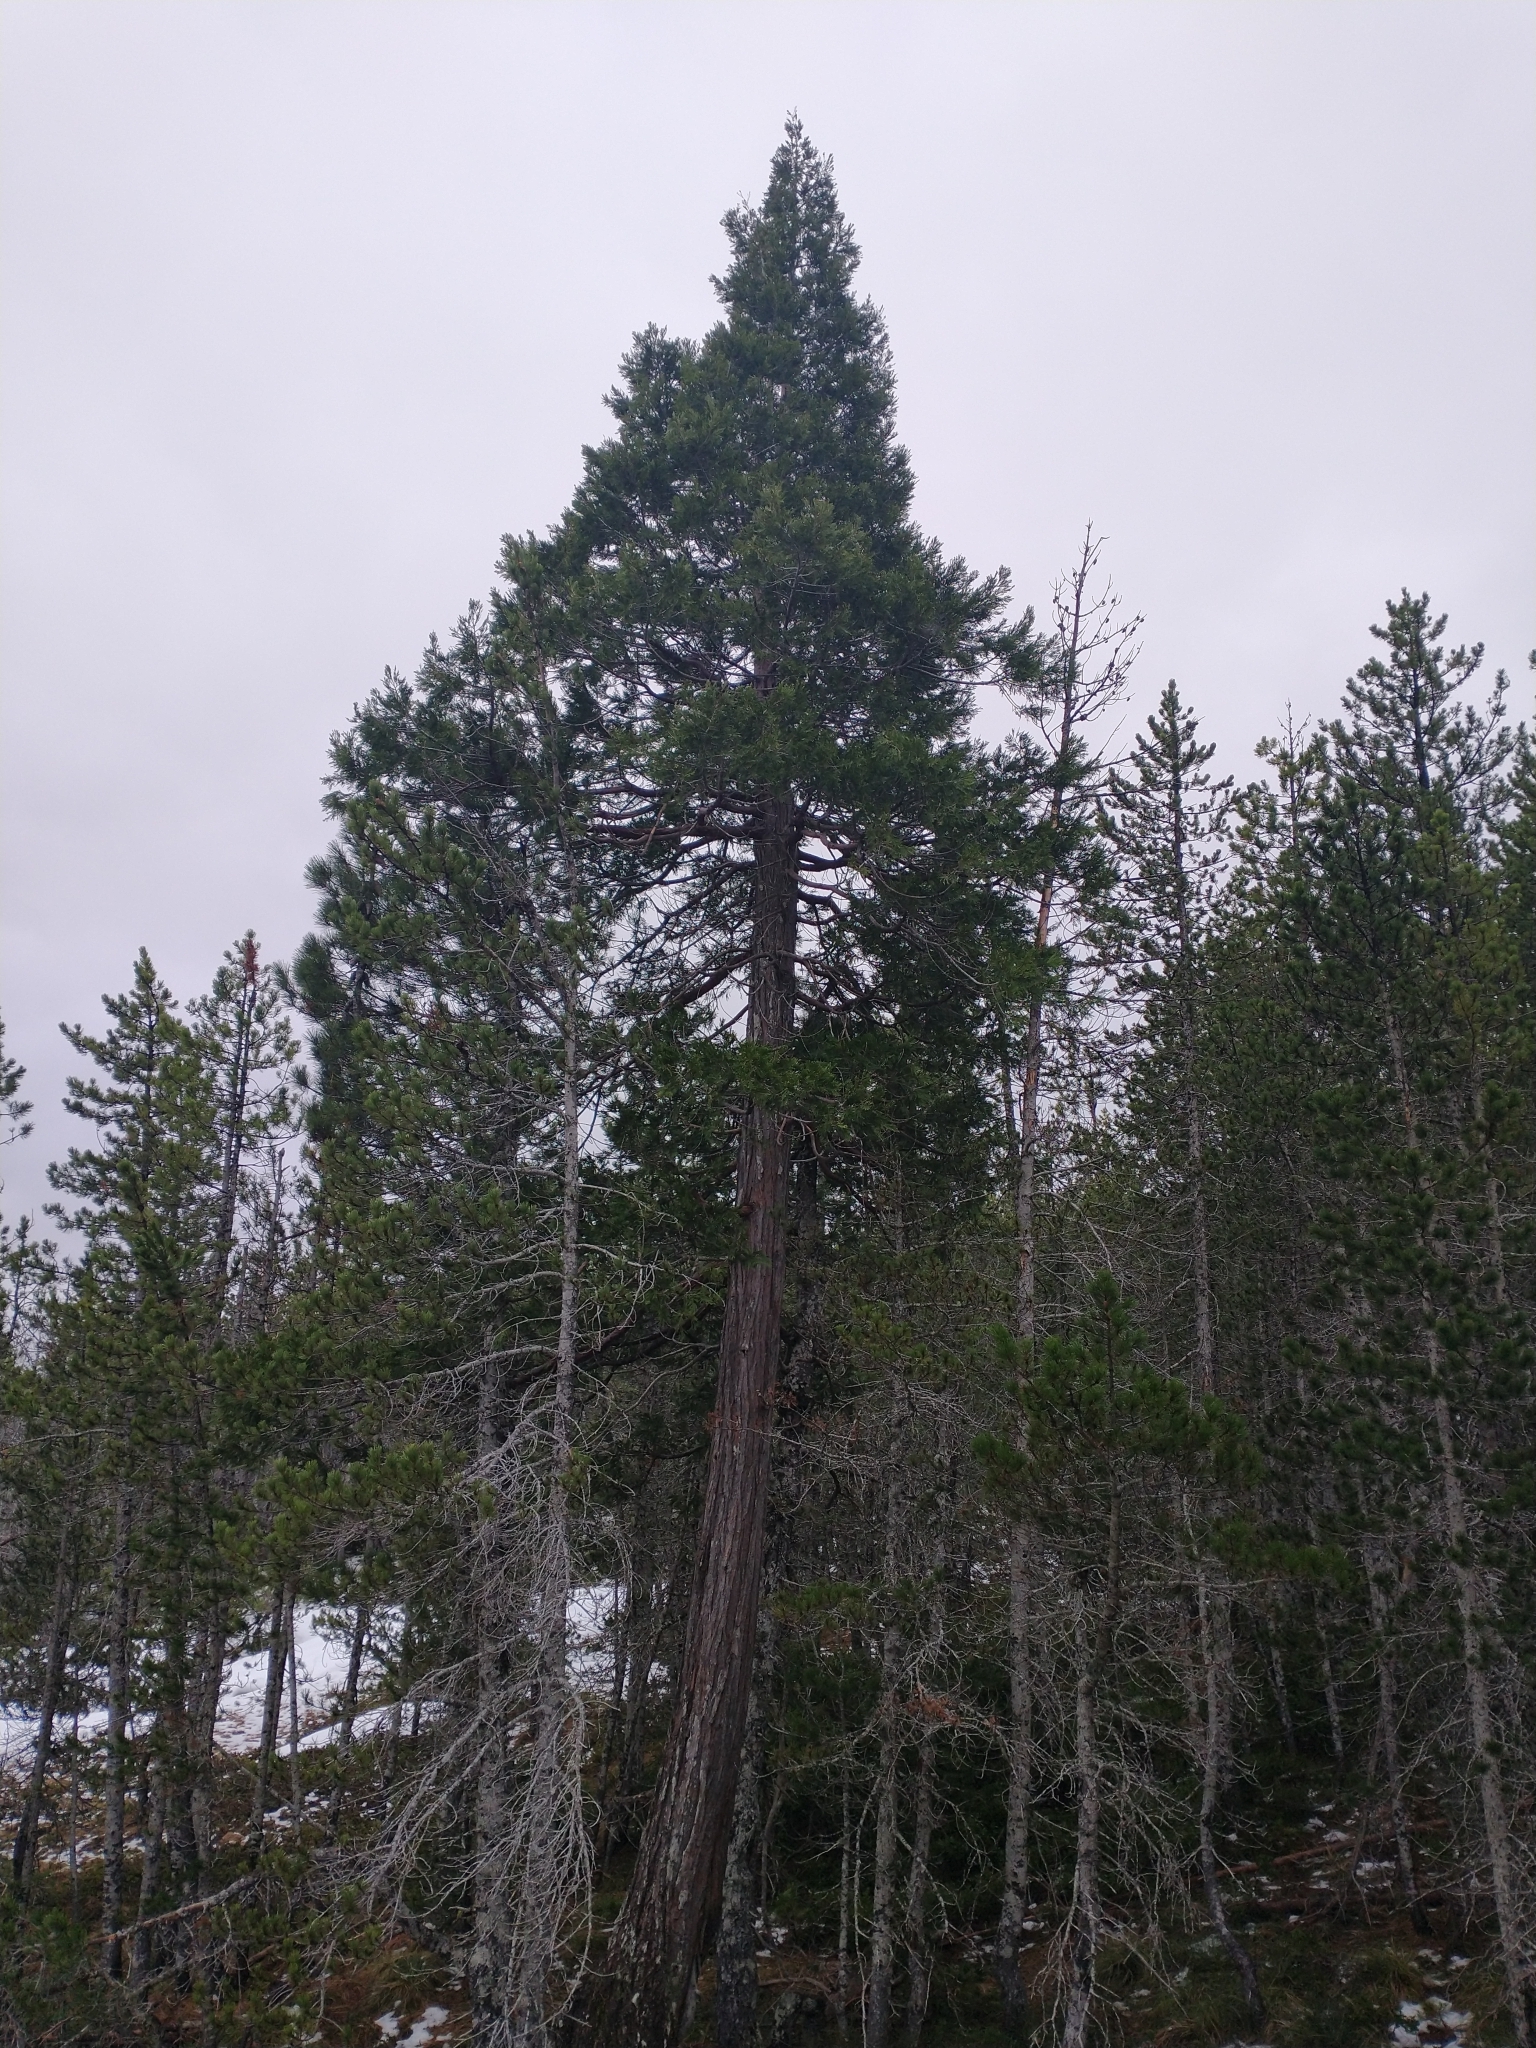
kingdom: Plantae
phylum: Tracheophyta
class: Pinopsida
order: Pinales
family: Cupressaceae
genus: Calocedrus
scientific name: Calocedrus decurrens
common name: Californian incense-cedar
